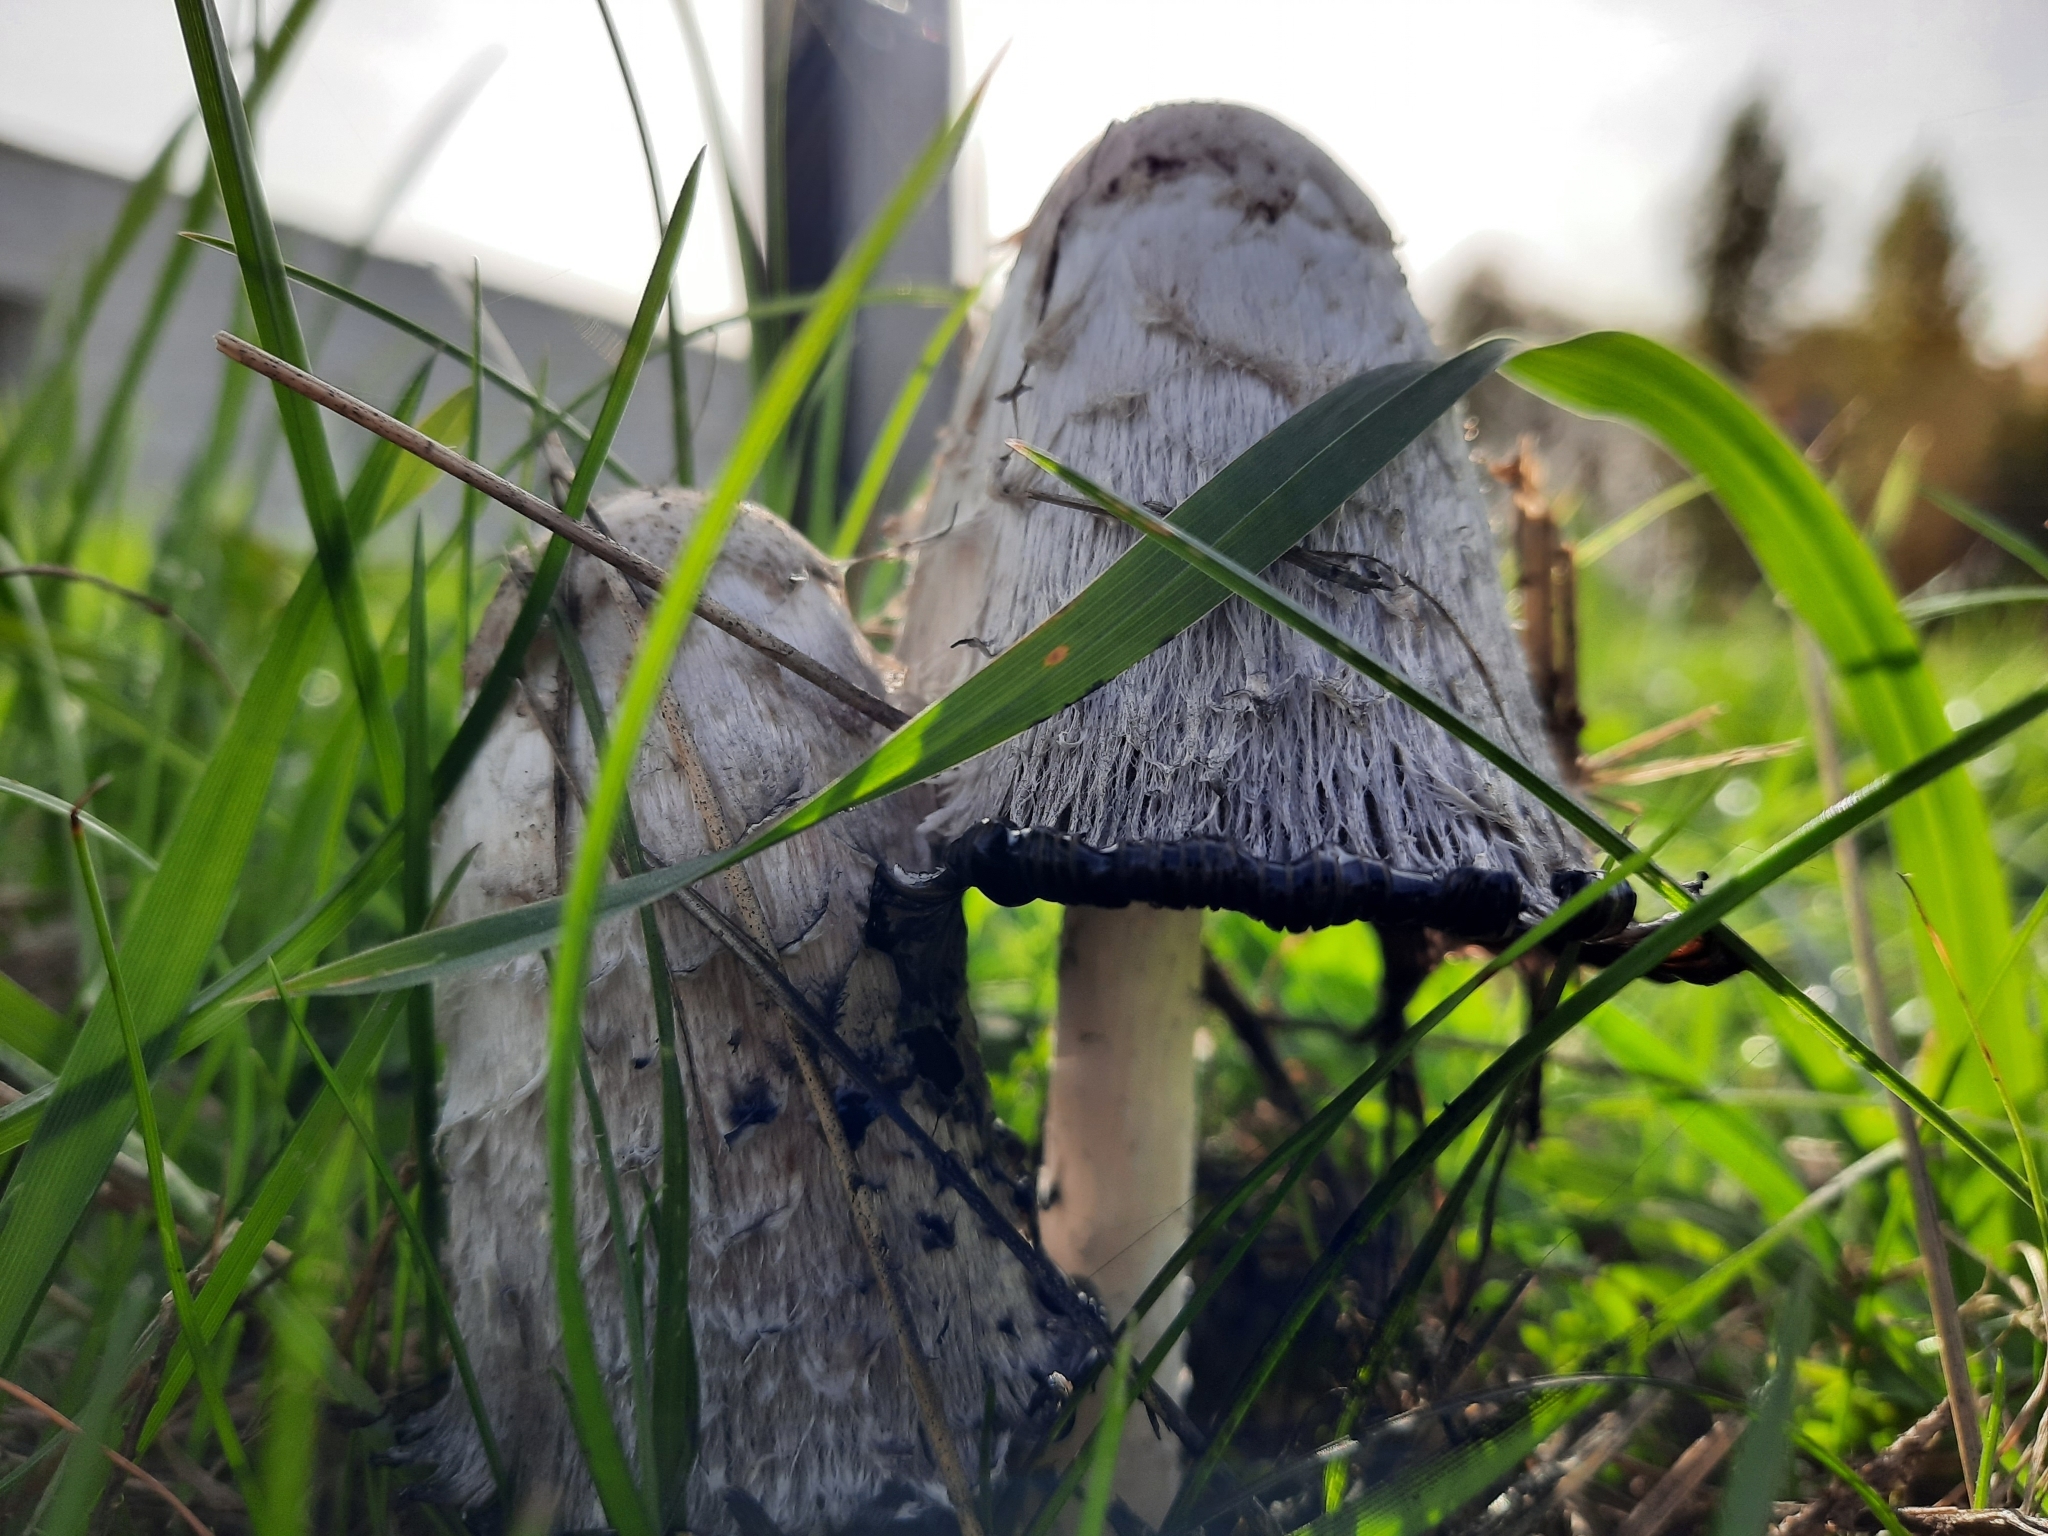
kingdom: Fungi
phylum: Basidiomycota
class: Agaricomycetes
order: Agaricales
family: Agaricaceae
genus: Coprinus
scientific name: Coprinus comatus
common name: Lawyer's wig
